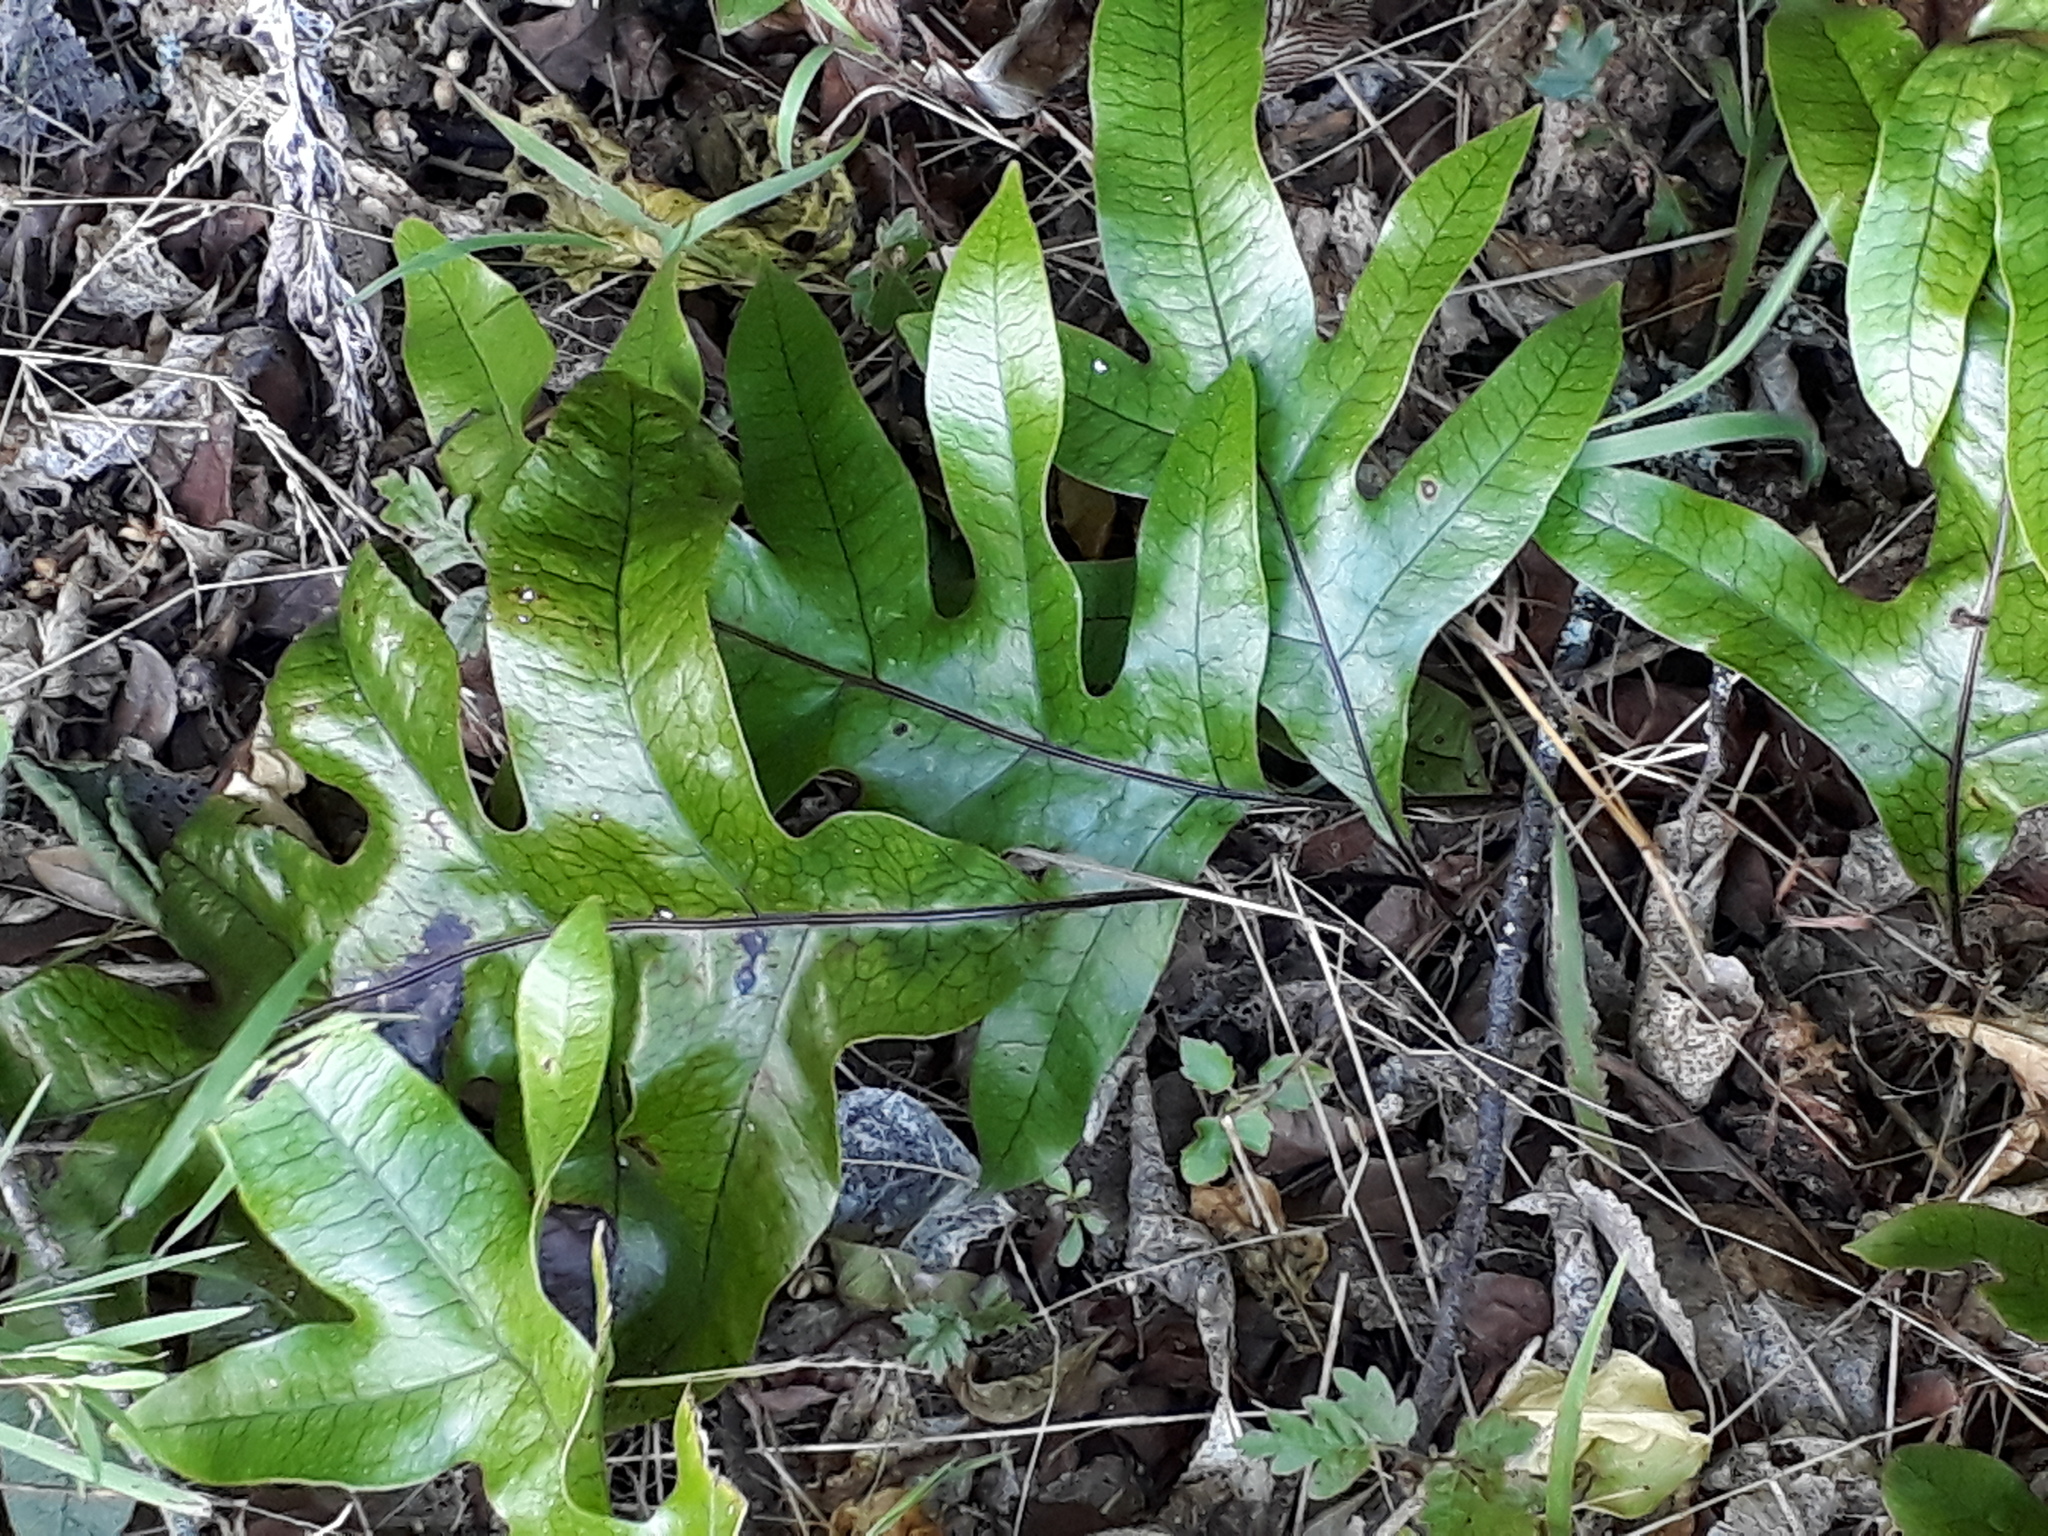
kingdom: Plantae
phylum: Tracheophyta
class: Polypodiopsida
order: Polypodiales
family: Polypodiaceae
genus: Lecanopteris
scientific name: Lecanopteris pustulata
